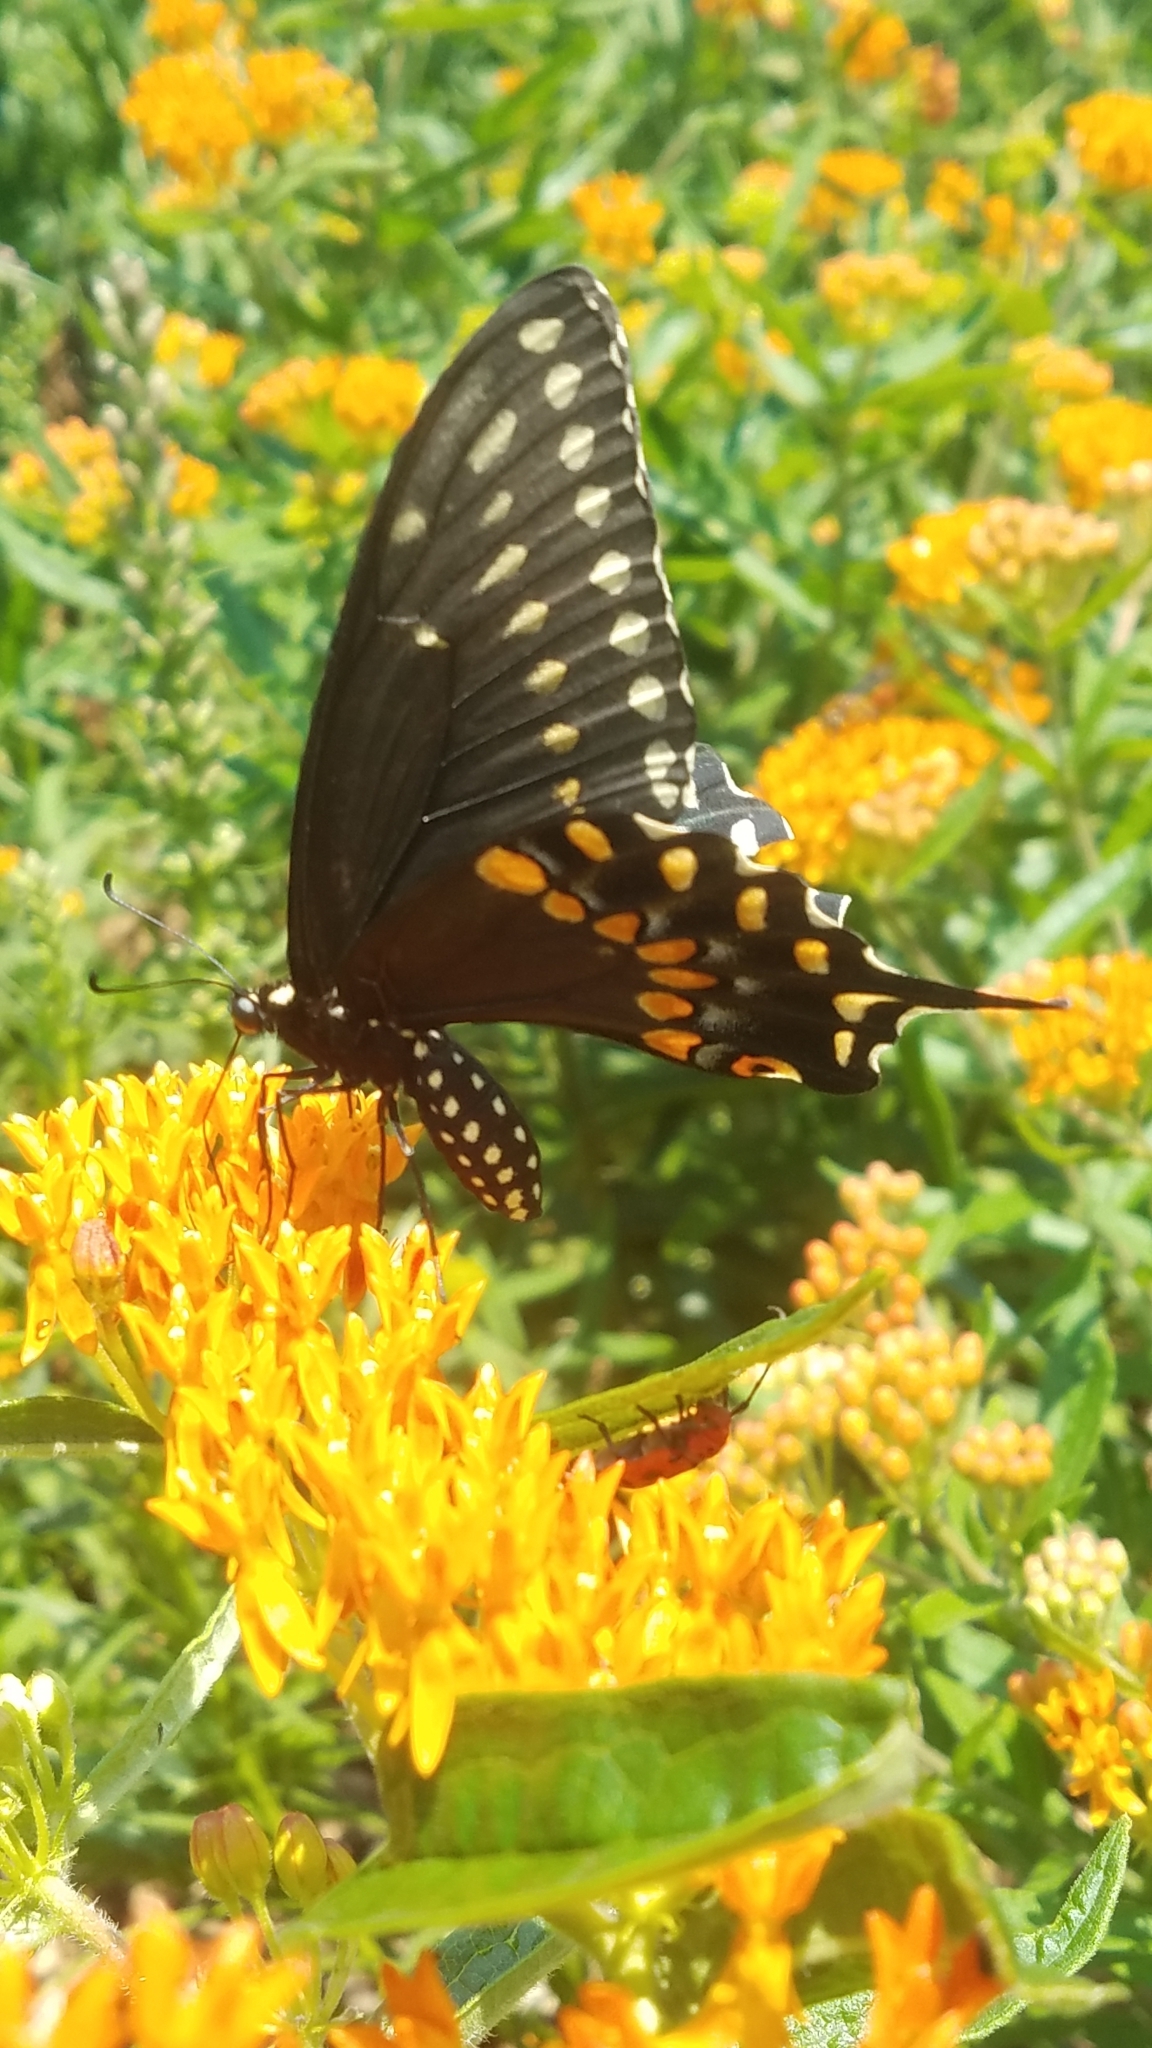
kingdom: Animalia
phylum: Arthropoda
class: Insecta
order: Lepidoptera
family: Papilionidae
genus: Papilio
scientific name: Papilio polyxenes
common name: Black swallowtail
